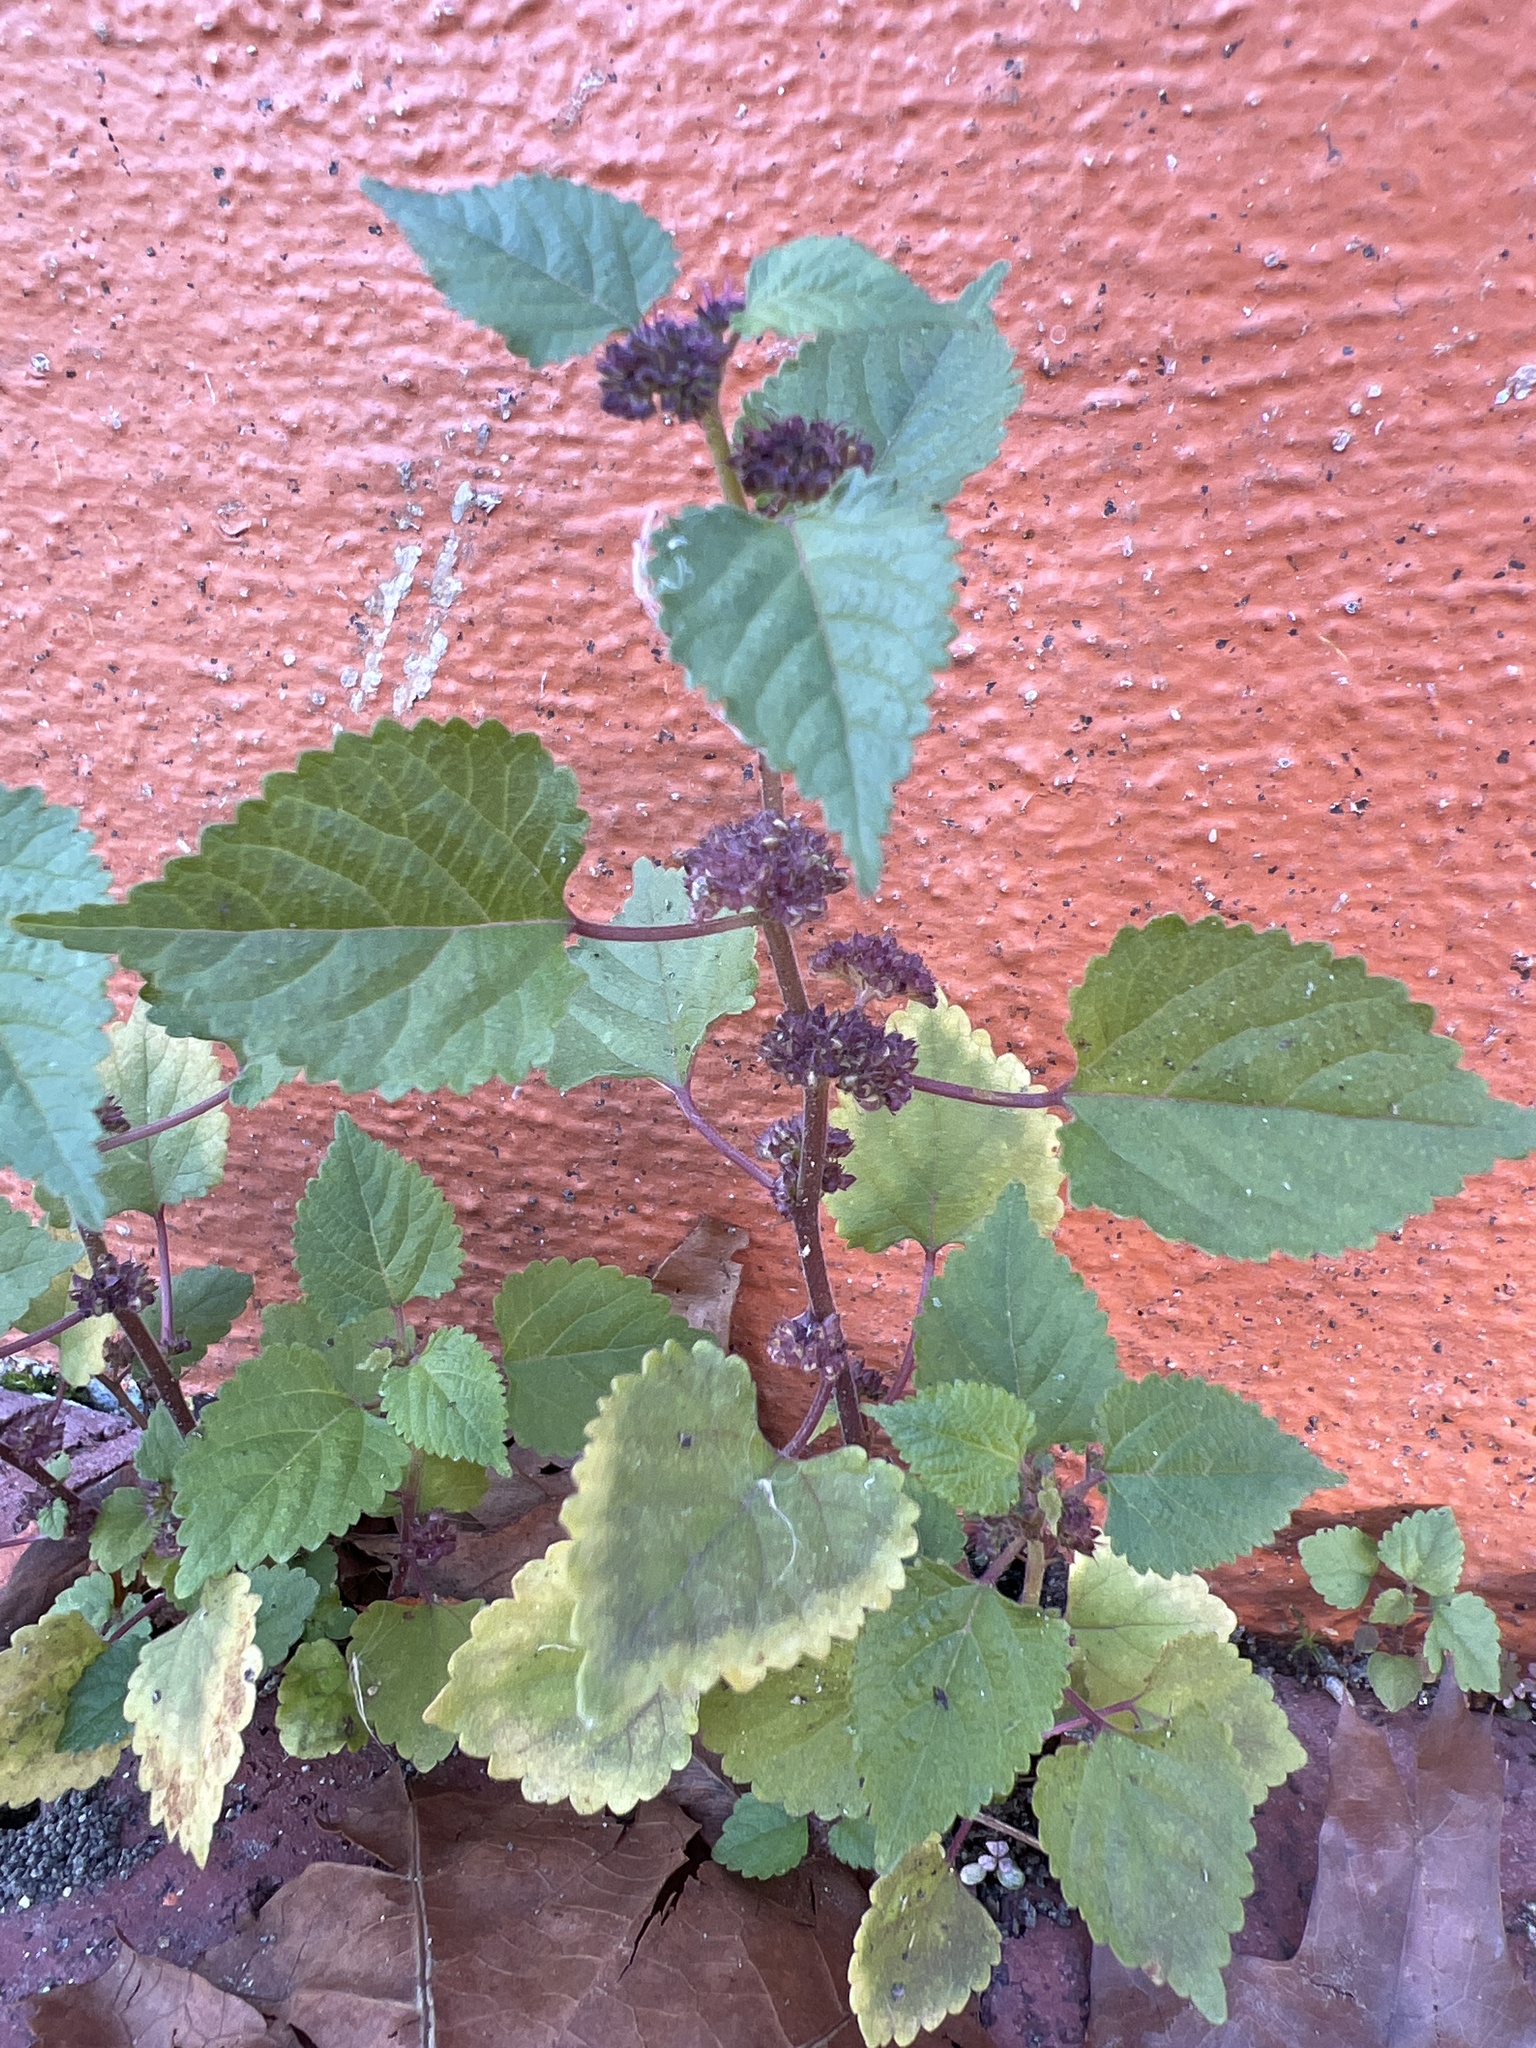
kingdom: Plantae
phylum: Tracheophyta
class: Magnoliopsida
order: Rosales
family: Moraceae
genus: Fatoua
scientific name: Fatoua villosa
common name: Hairy crabweed
